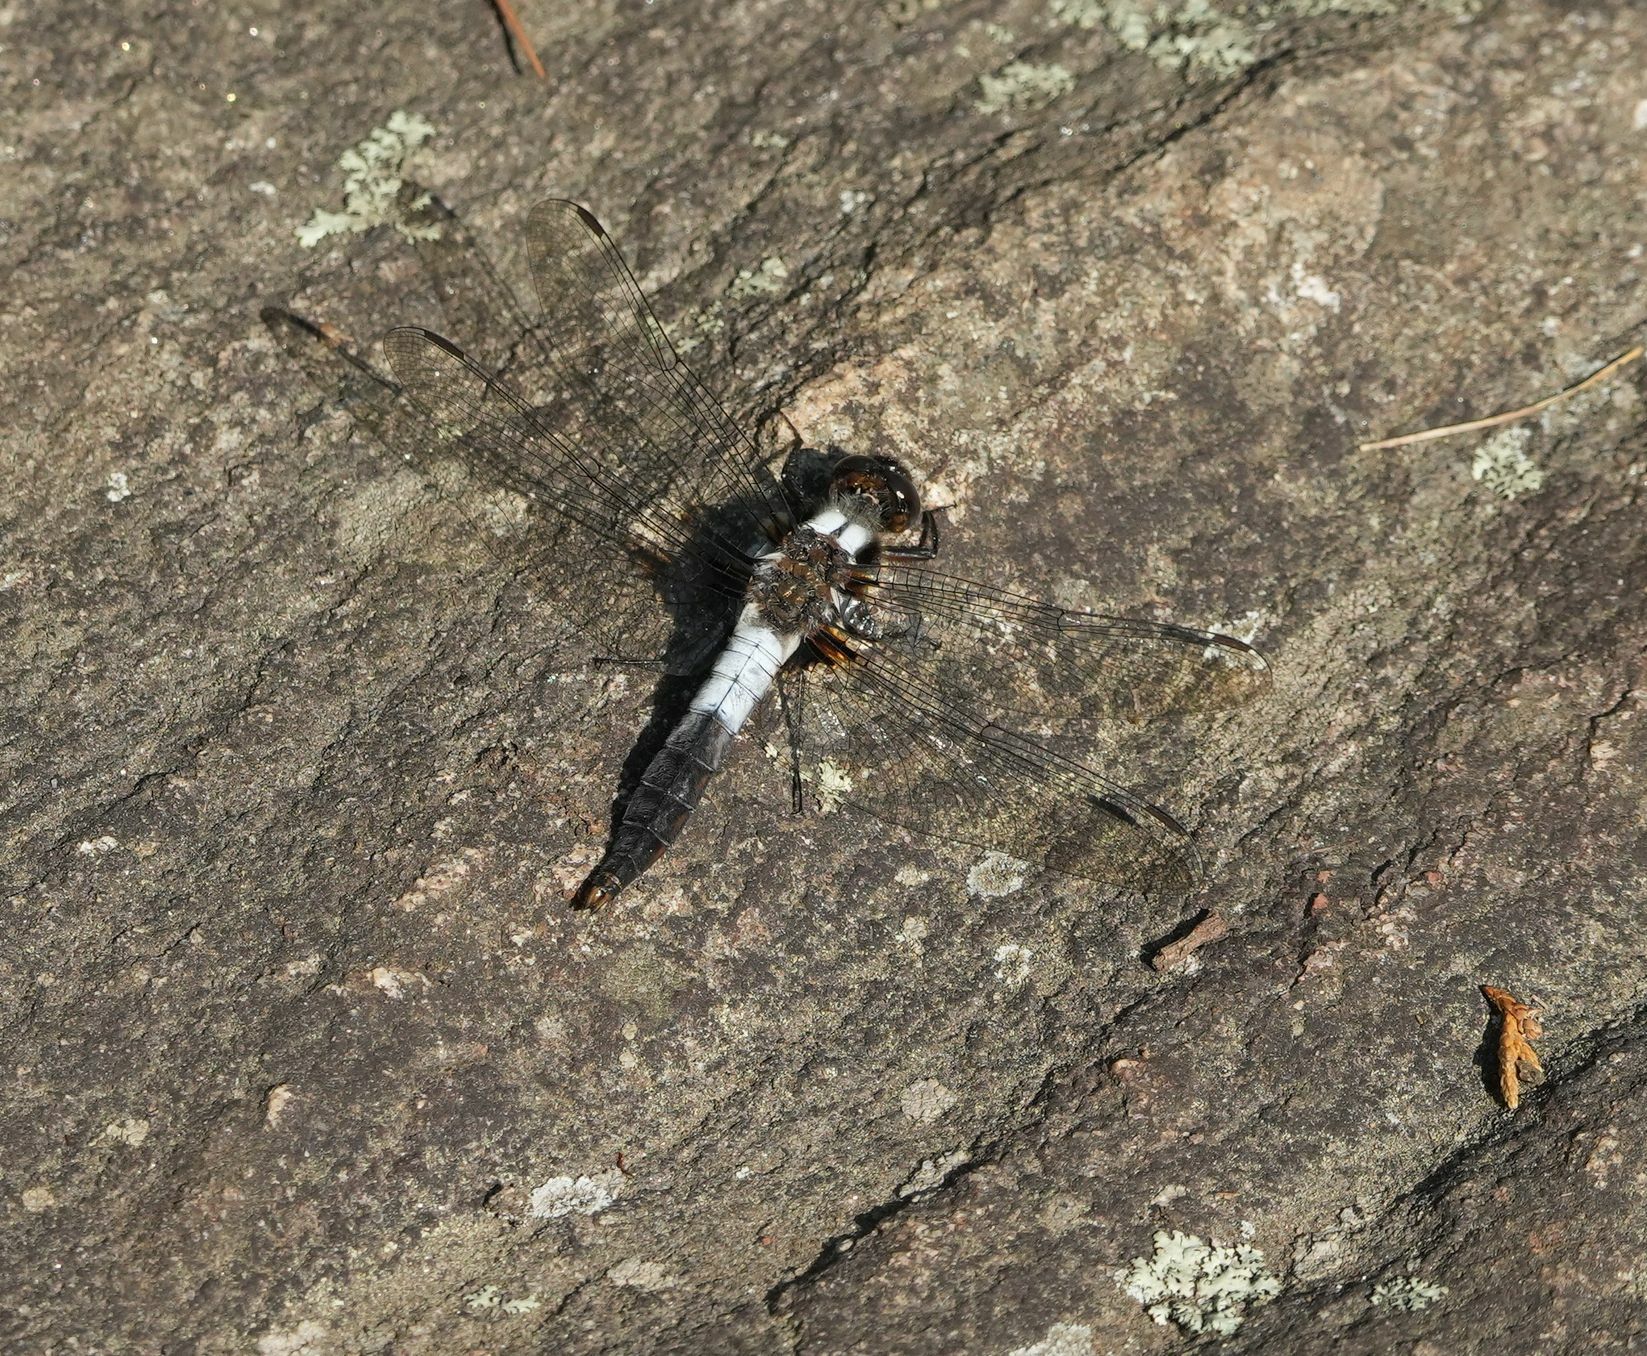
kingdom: Animalia
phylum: Arthropoda
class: Insecta
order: Odonata
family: Libellulidae
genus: Ladona
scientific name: Ladona julia
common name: Chalk-fronted corporal
